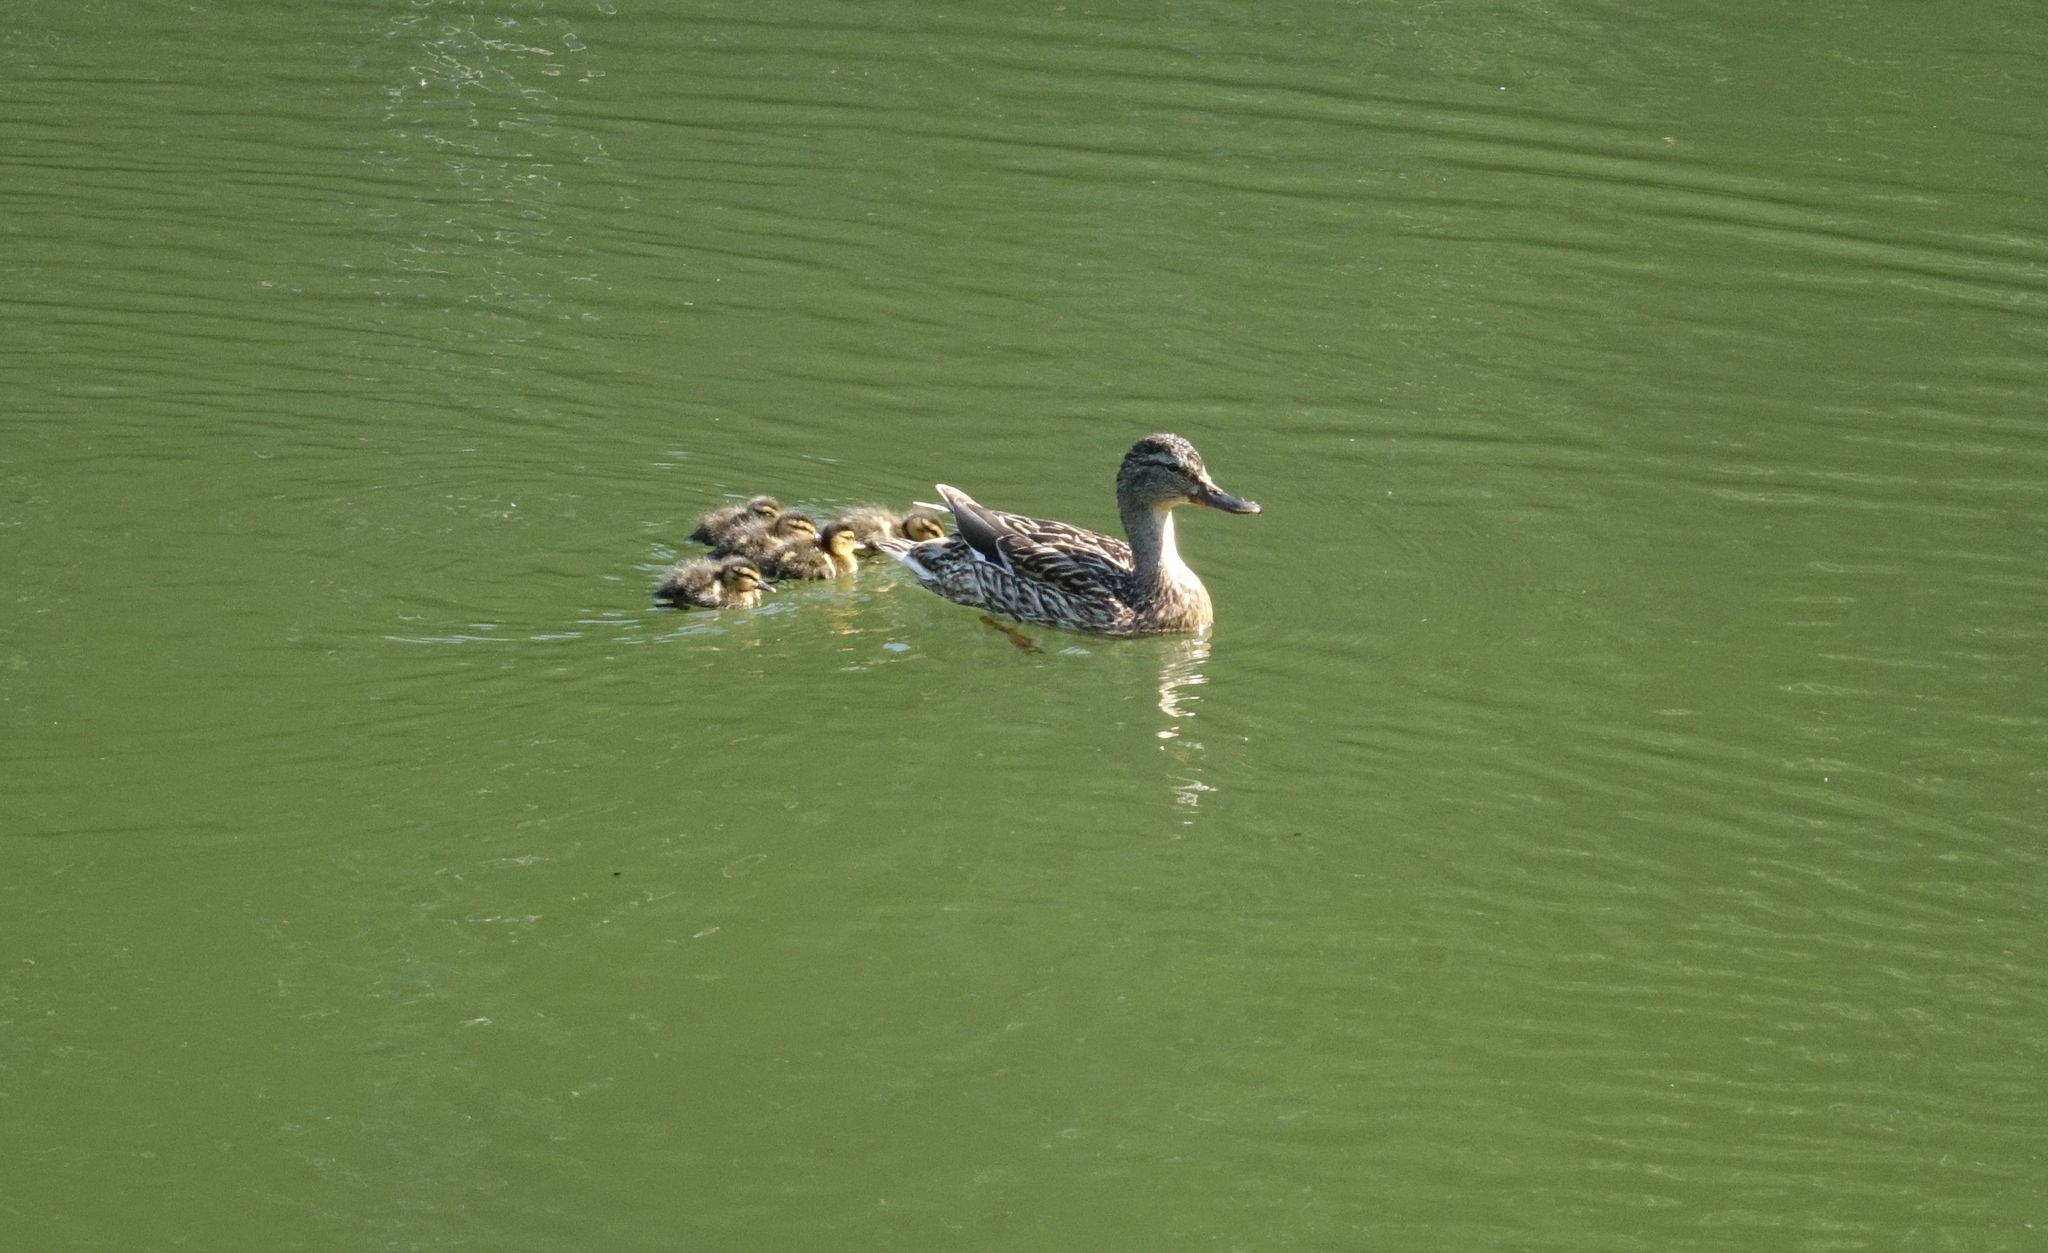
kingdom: Animalia
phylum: Chordata
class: Aves
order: Anseriformes
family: Anatidae
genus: Anas
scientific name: Anas platyrhynchos
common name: Mallard
